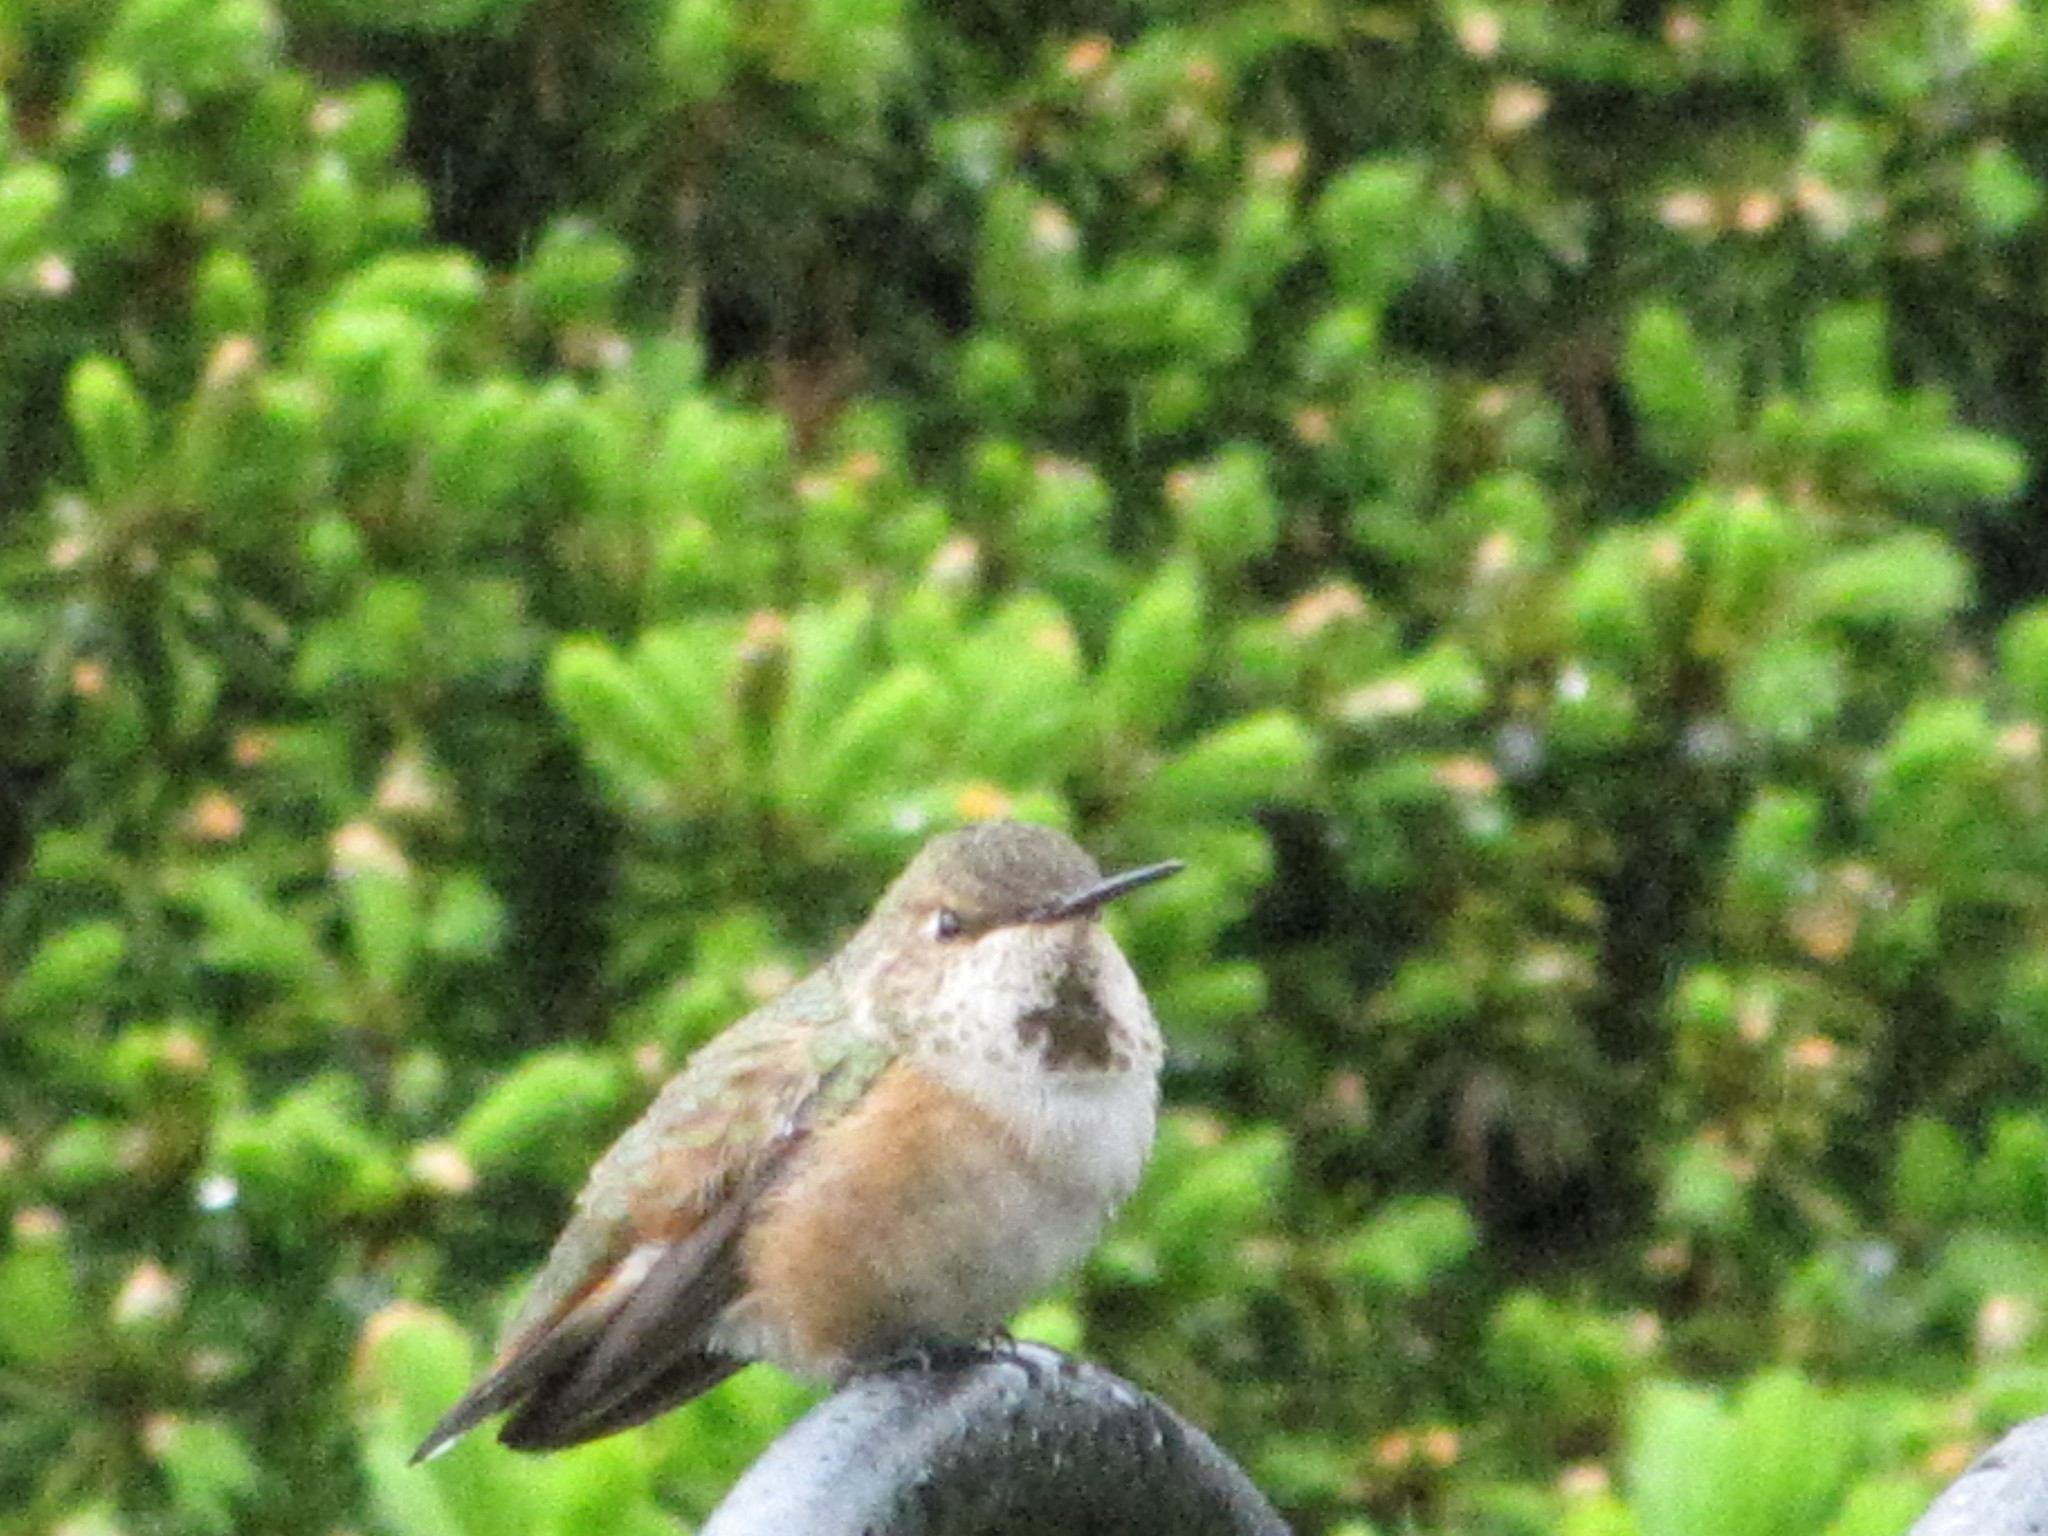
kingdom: Animalia
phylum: Chordata
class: Aves
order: Apodiformes
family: Trochilidae
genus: Selasphorus
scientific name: Selasphorus rufus
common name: Rufous hummingbird
